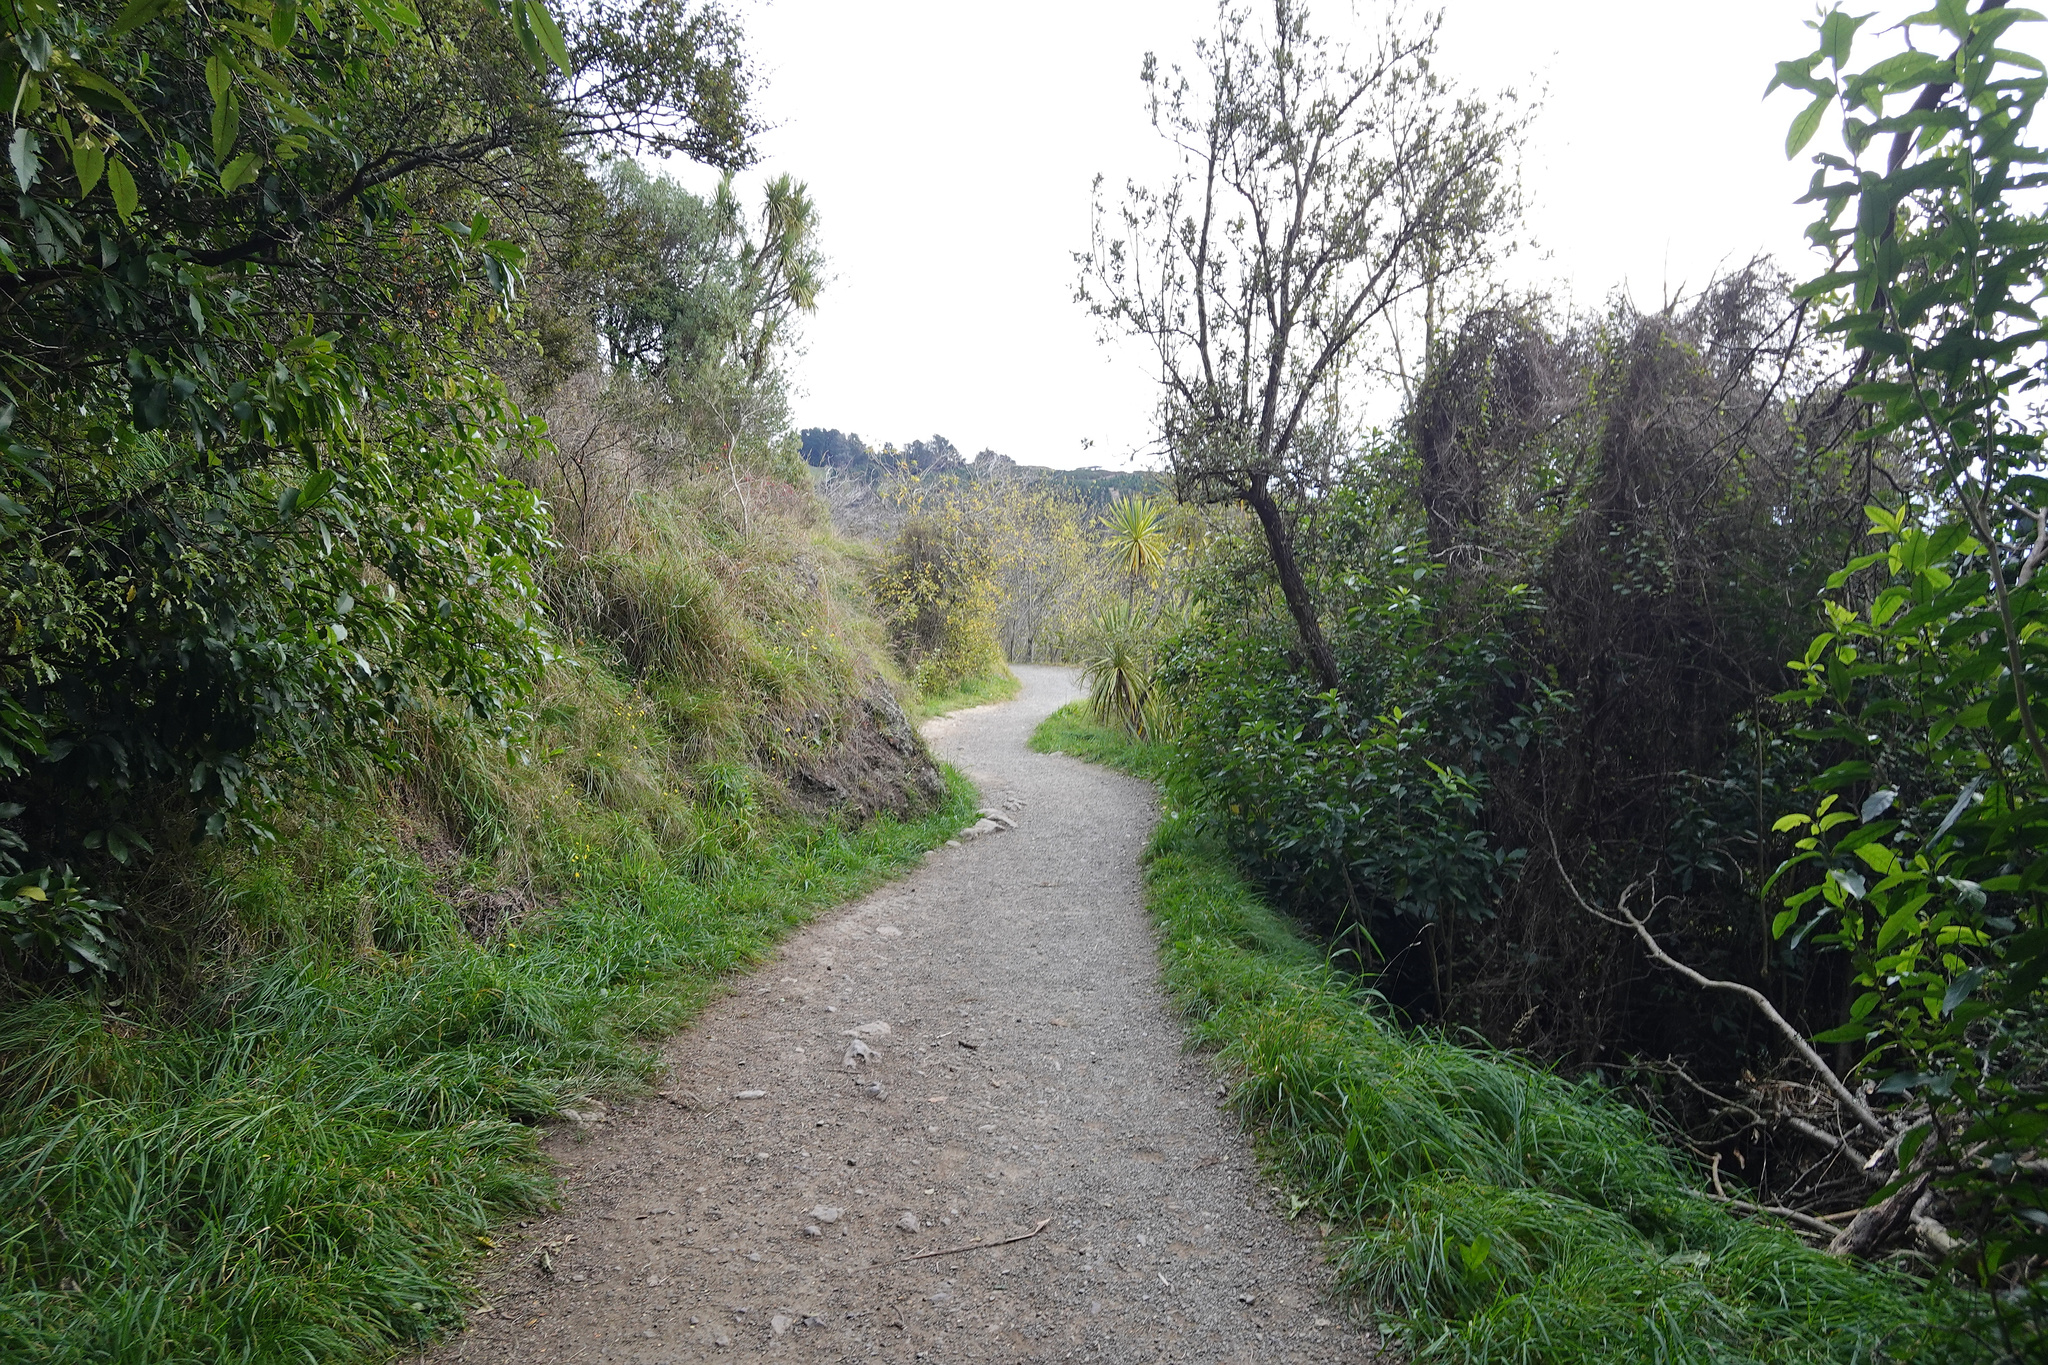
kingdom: Plantae
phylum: Tracheophyta
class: Liliopsida
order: Asparagales
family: Asparagaceae
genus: Cordyline
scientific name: Cordyline australis
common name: Cabbage-palm
